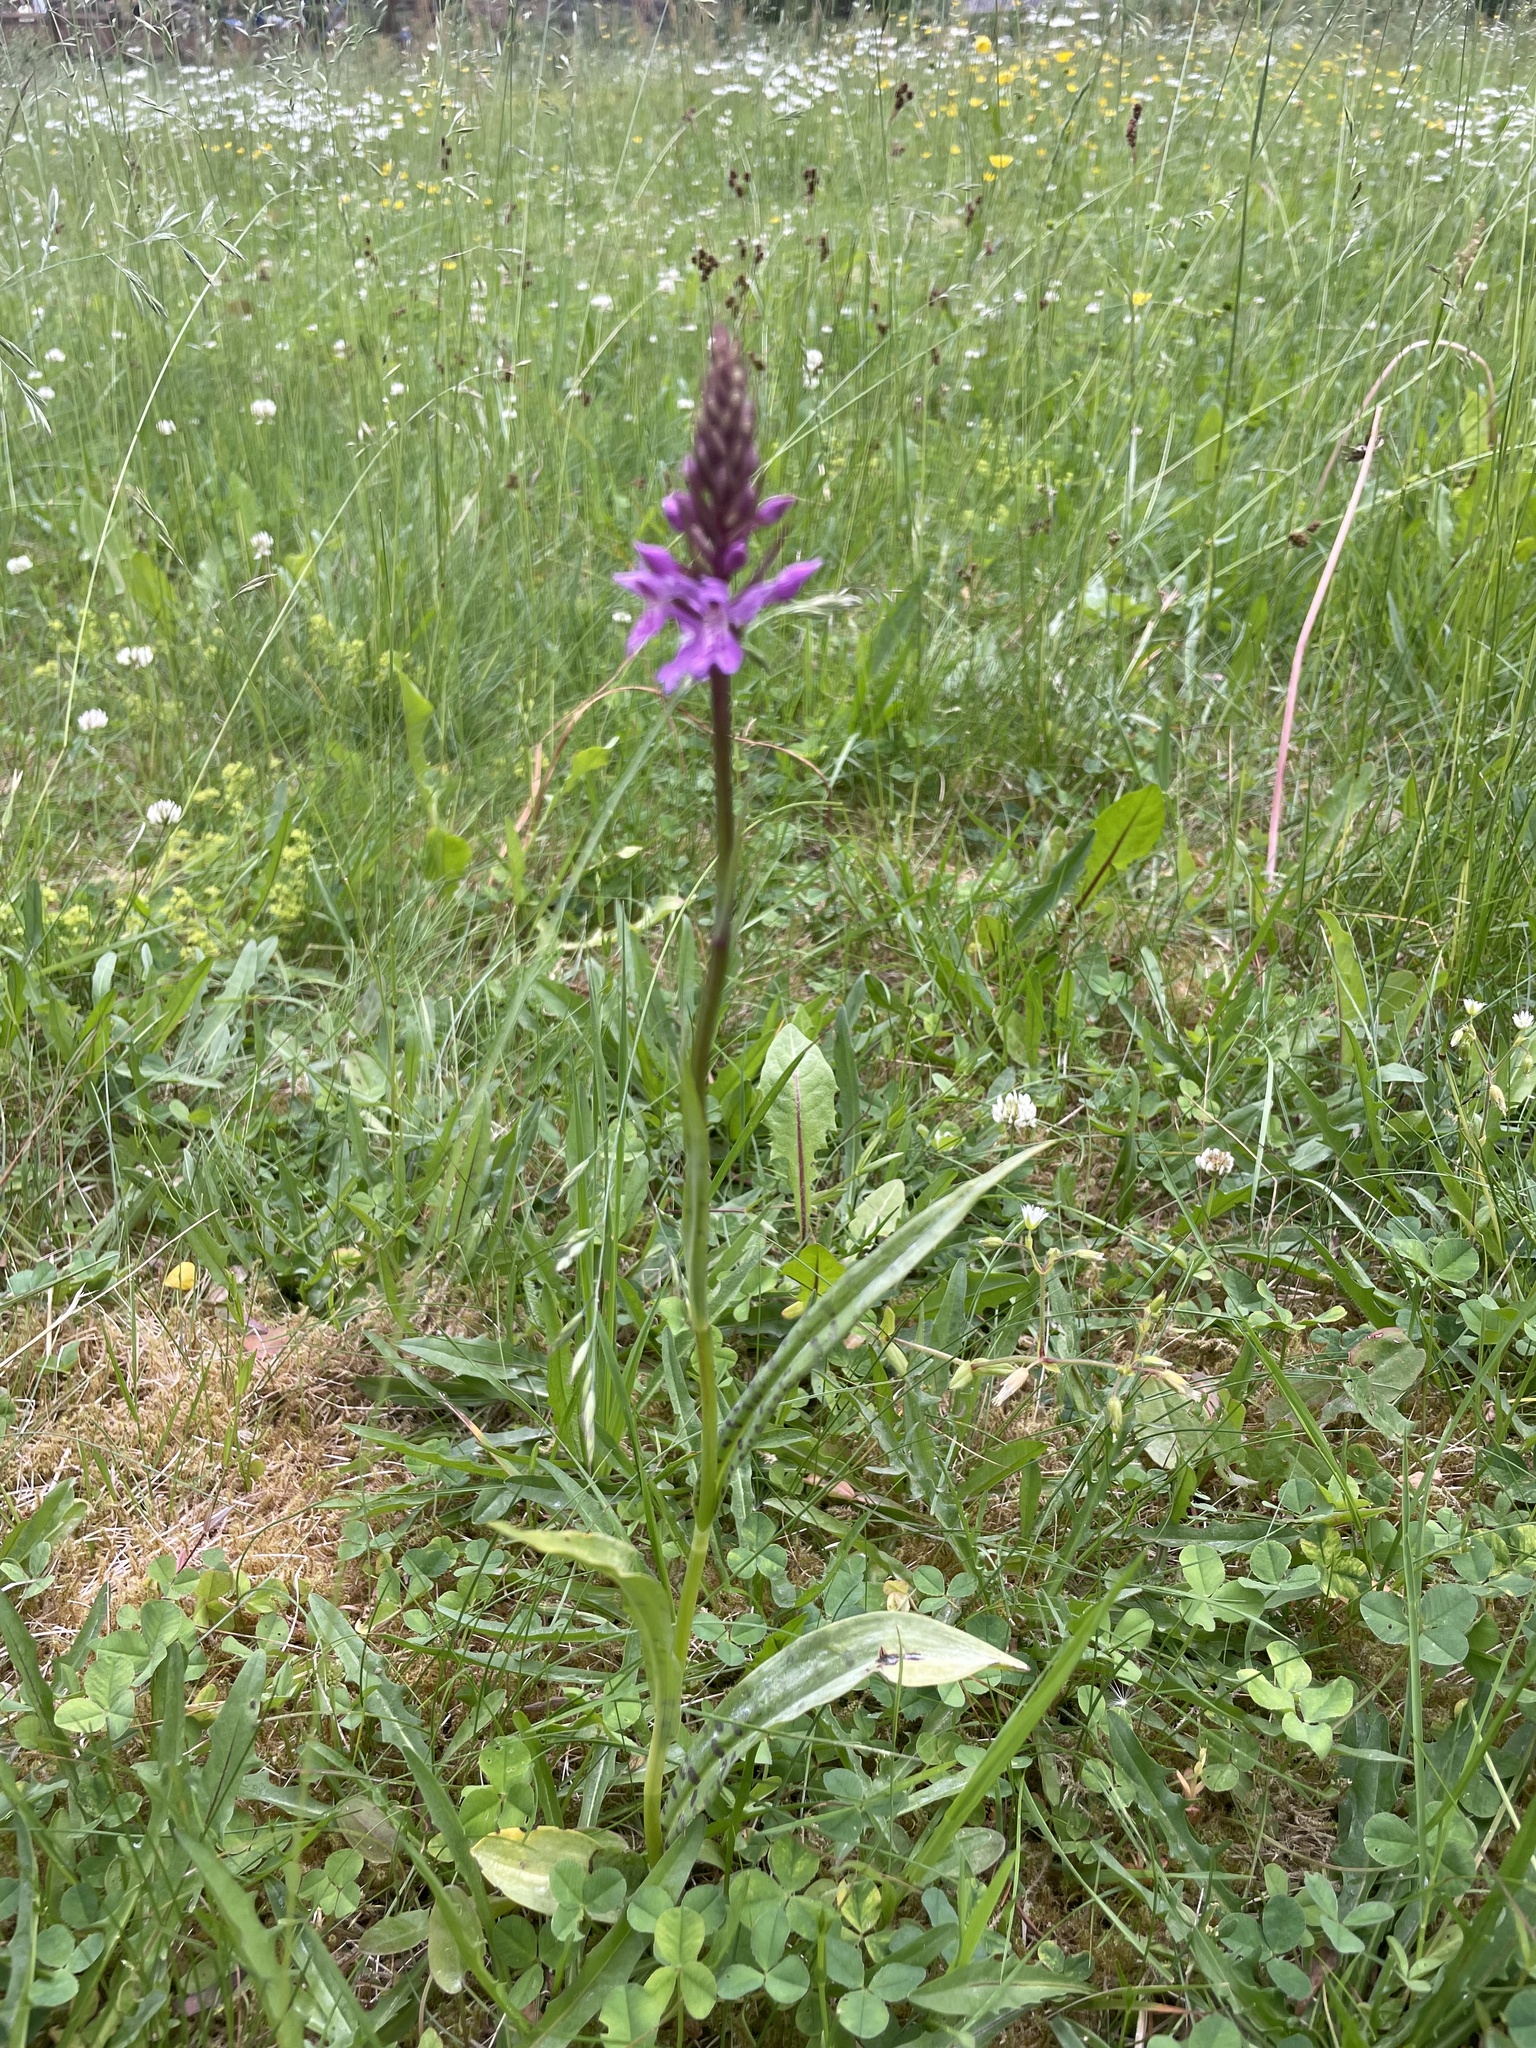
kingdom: Plantae
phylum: Tracheophyta
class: Liliopsida
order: Asparagales
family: Orchidaceae
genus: Dactylorhiza
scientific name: Dactylorhiza maculata
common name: Heath spotted-orchid
